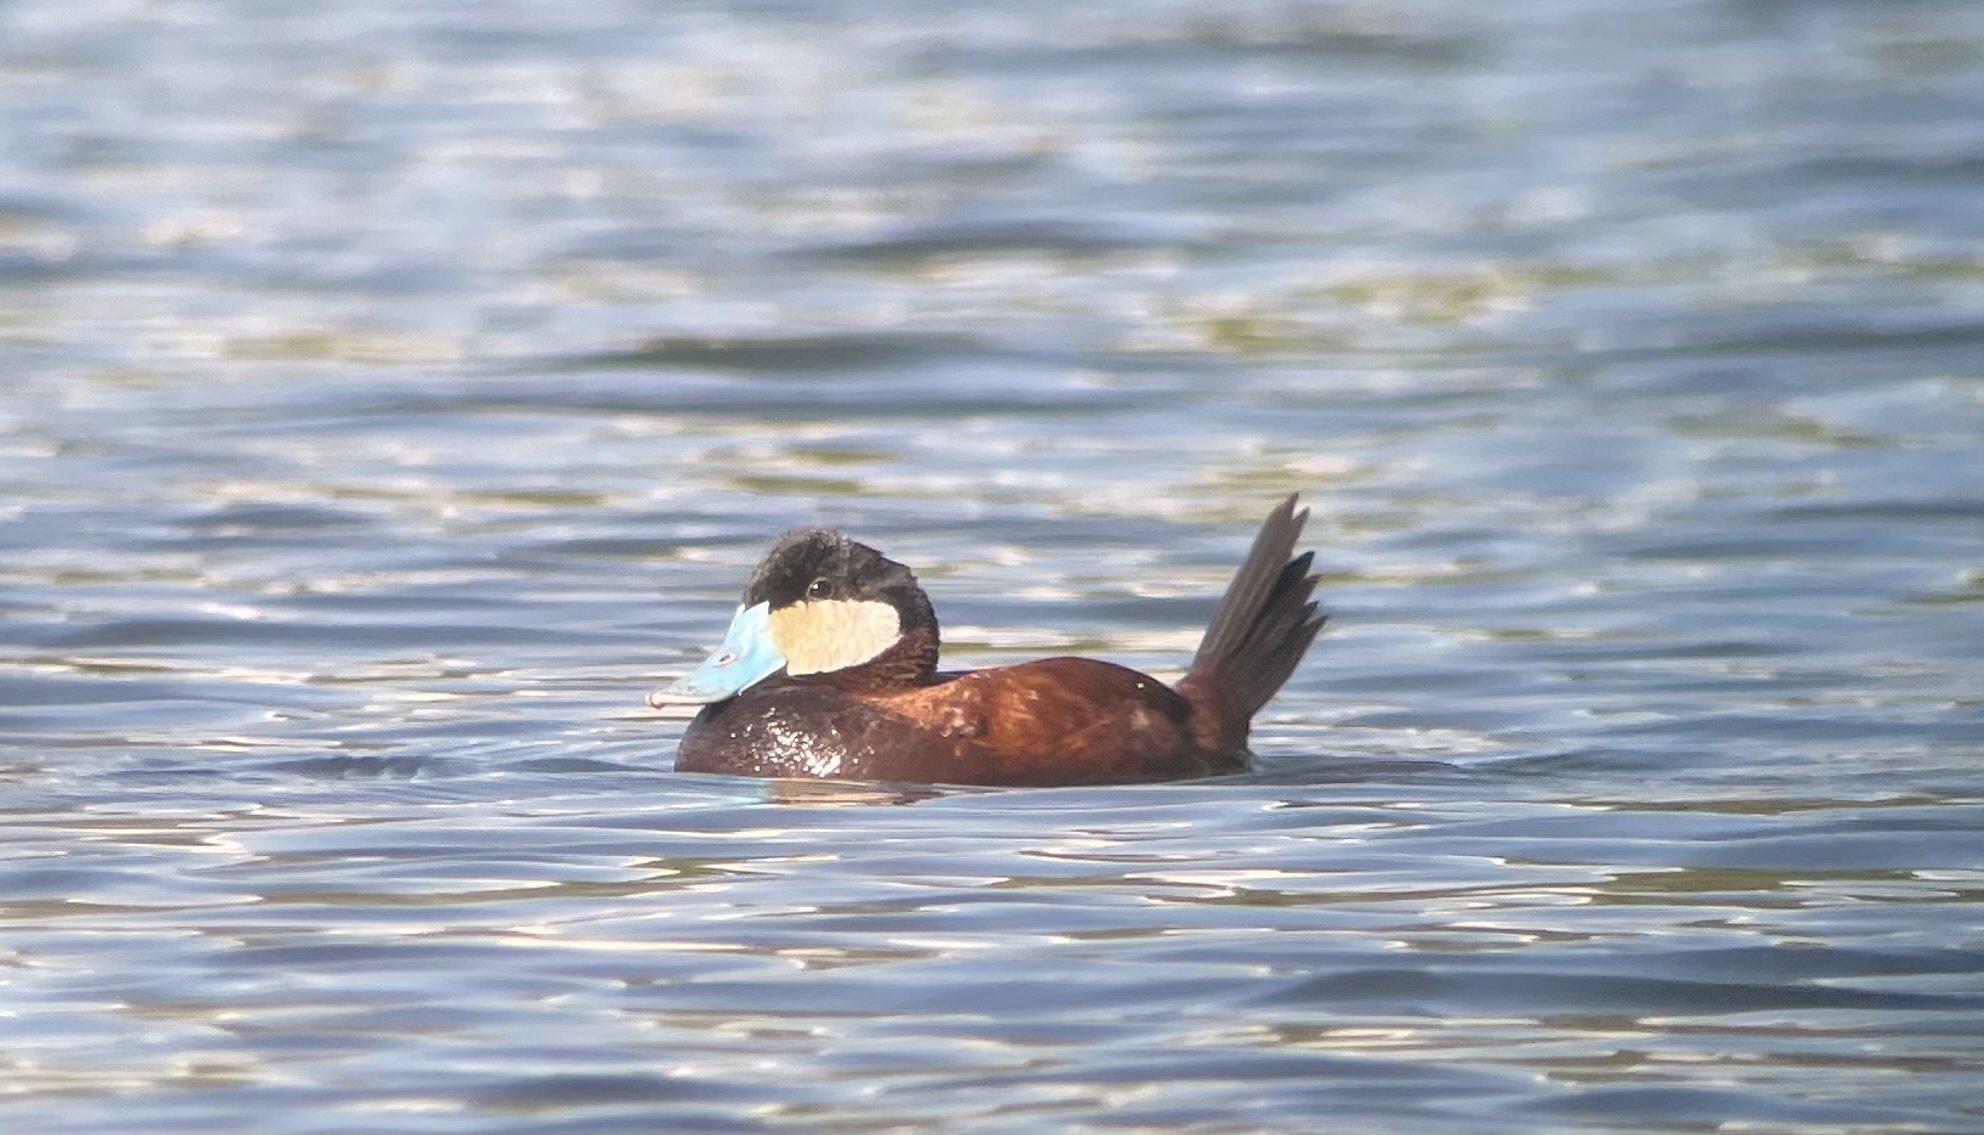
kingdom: Animalia
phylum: Chordata
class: Aves
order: Anseriformes
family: Anatidae
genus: Oxyura
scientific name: Oxyura jamaicensis
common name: Ruddy duck
